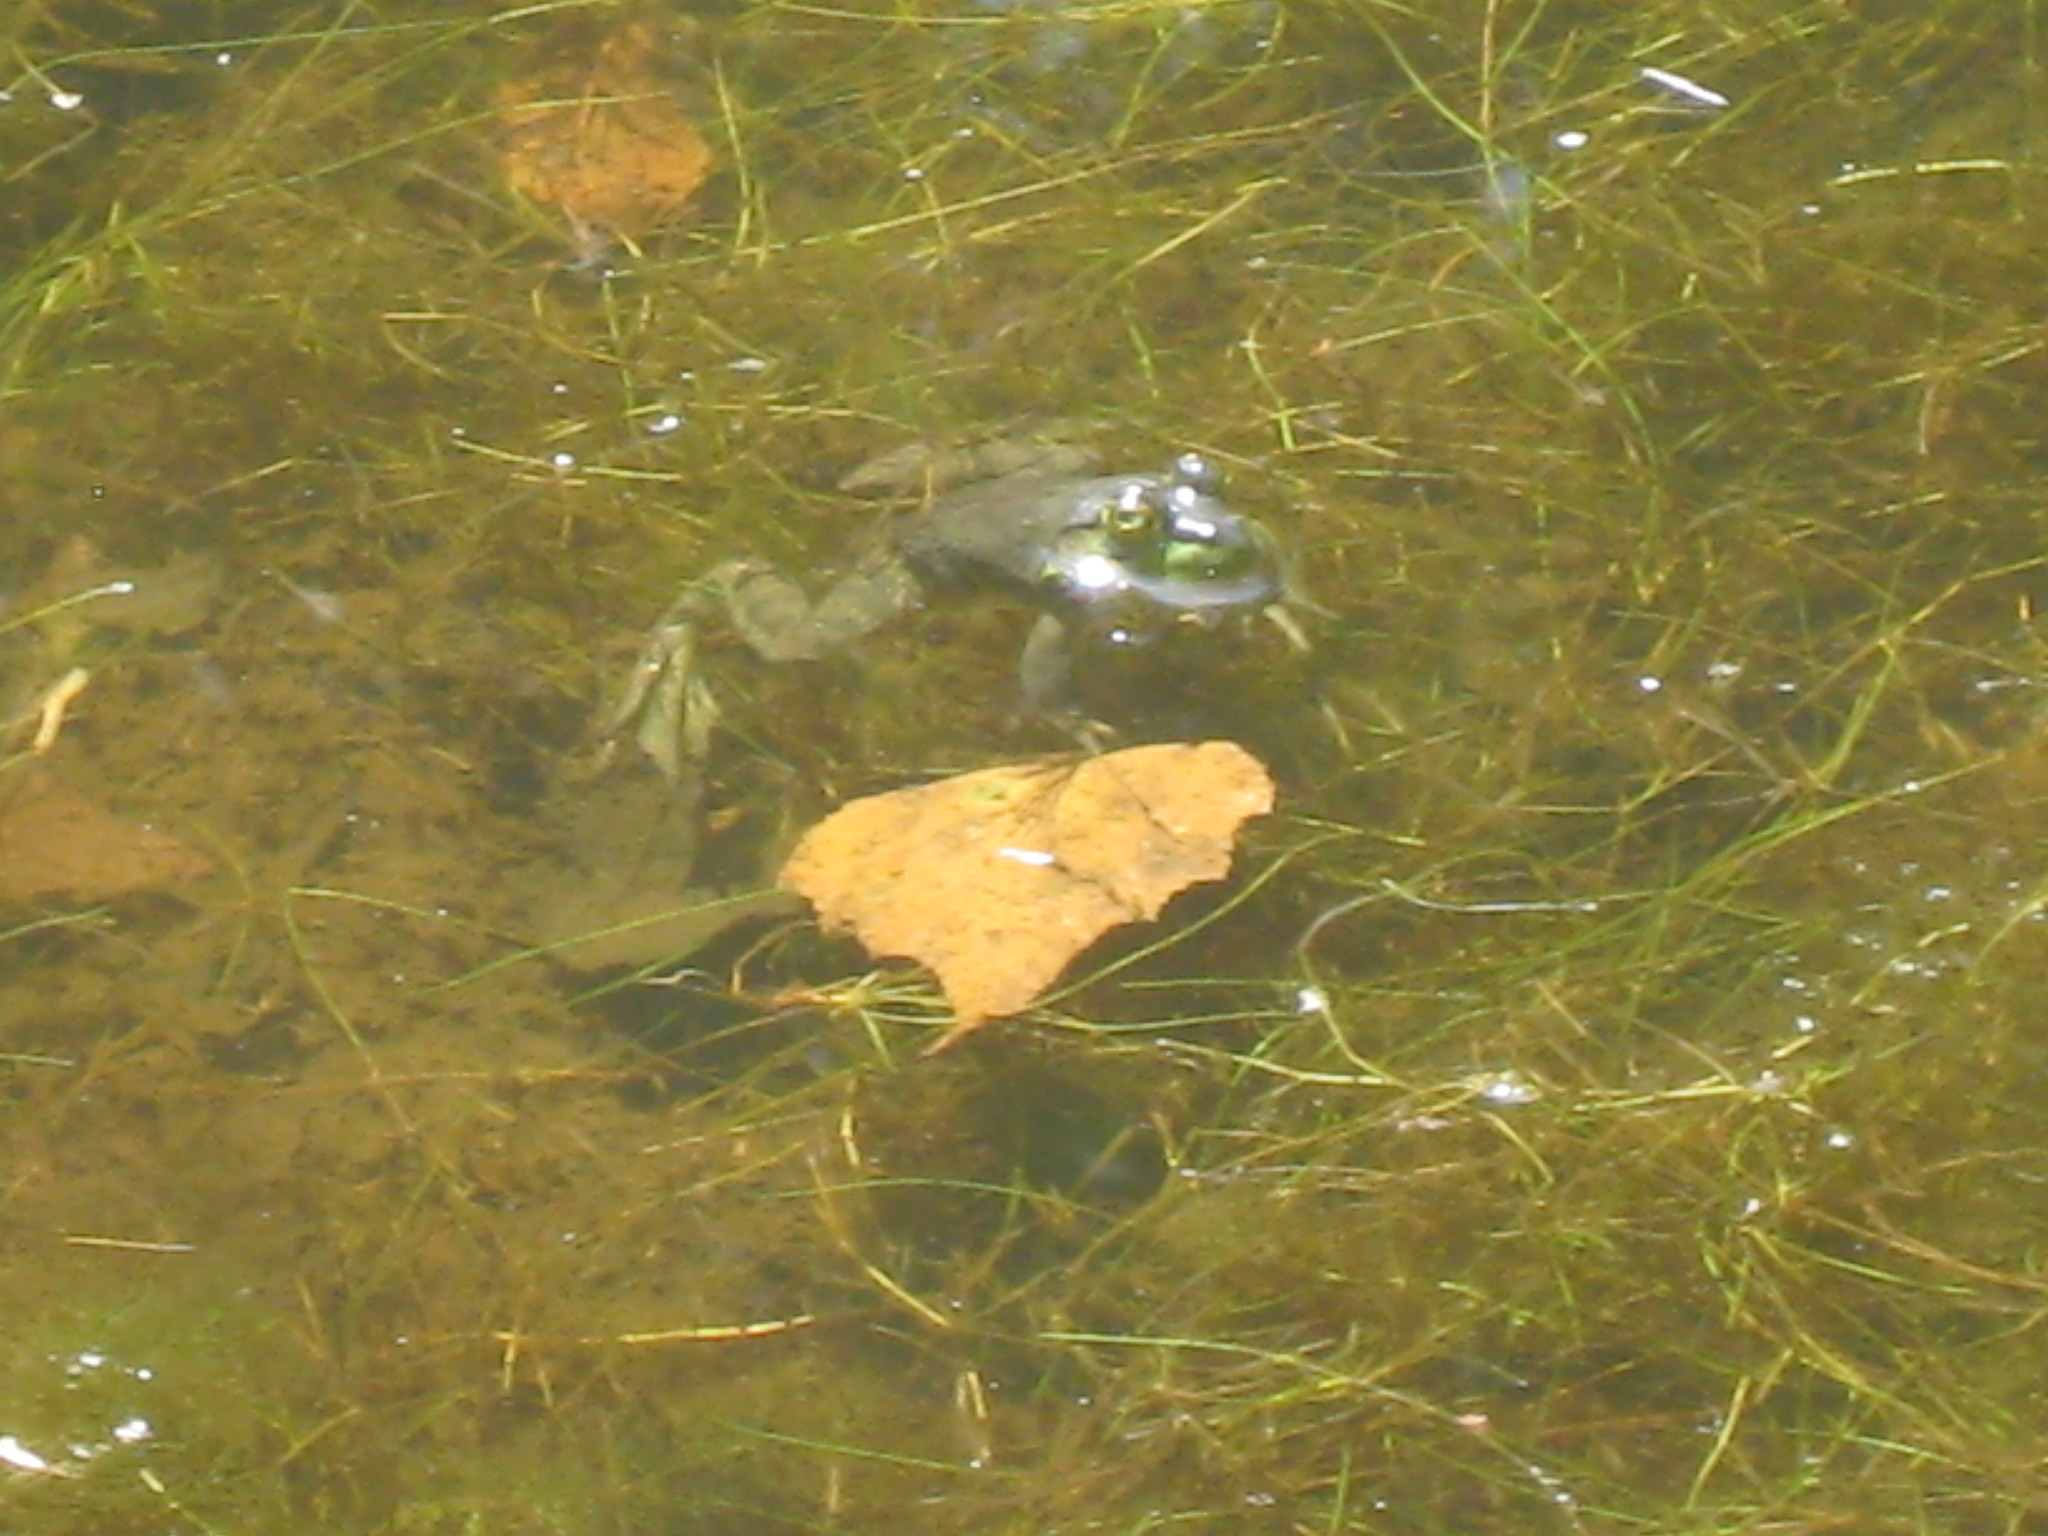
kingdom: Animalia
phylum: Chordata
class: Amphibia
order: Anura
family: Ranidae
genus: Lithobates
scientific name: Lithobates catesbeianus
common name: American bullfrog
